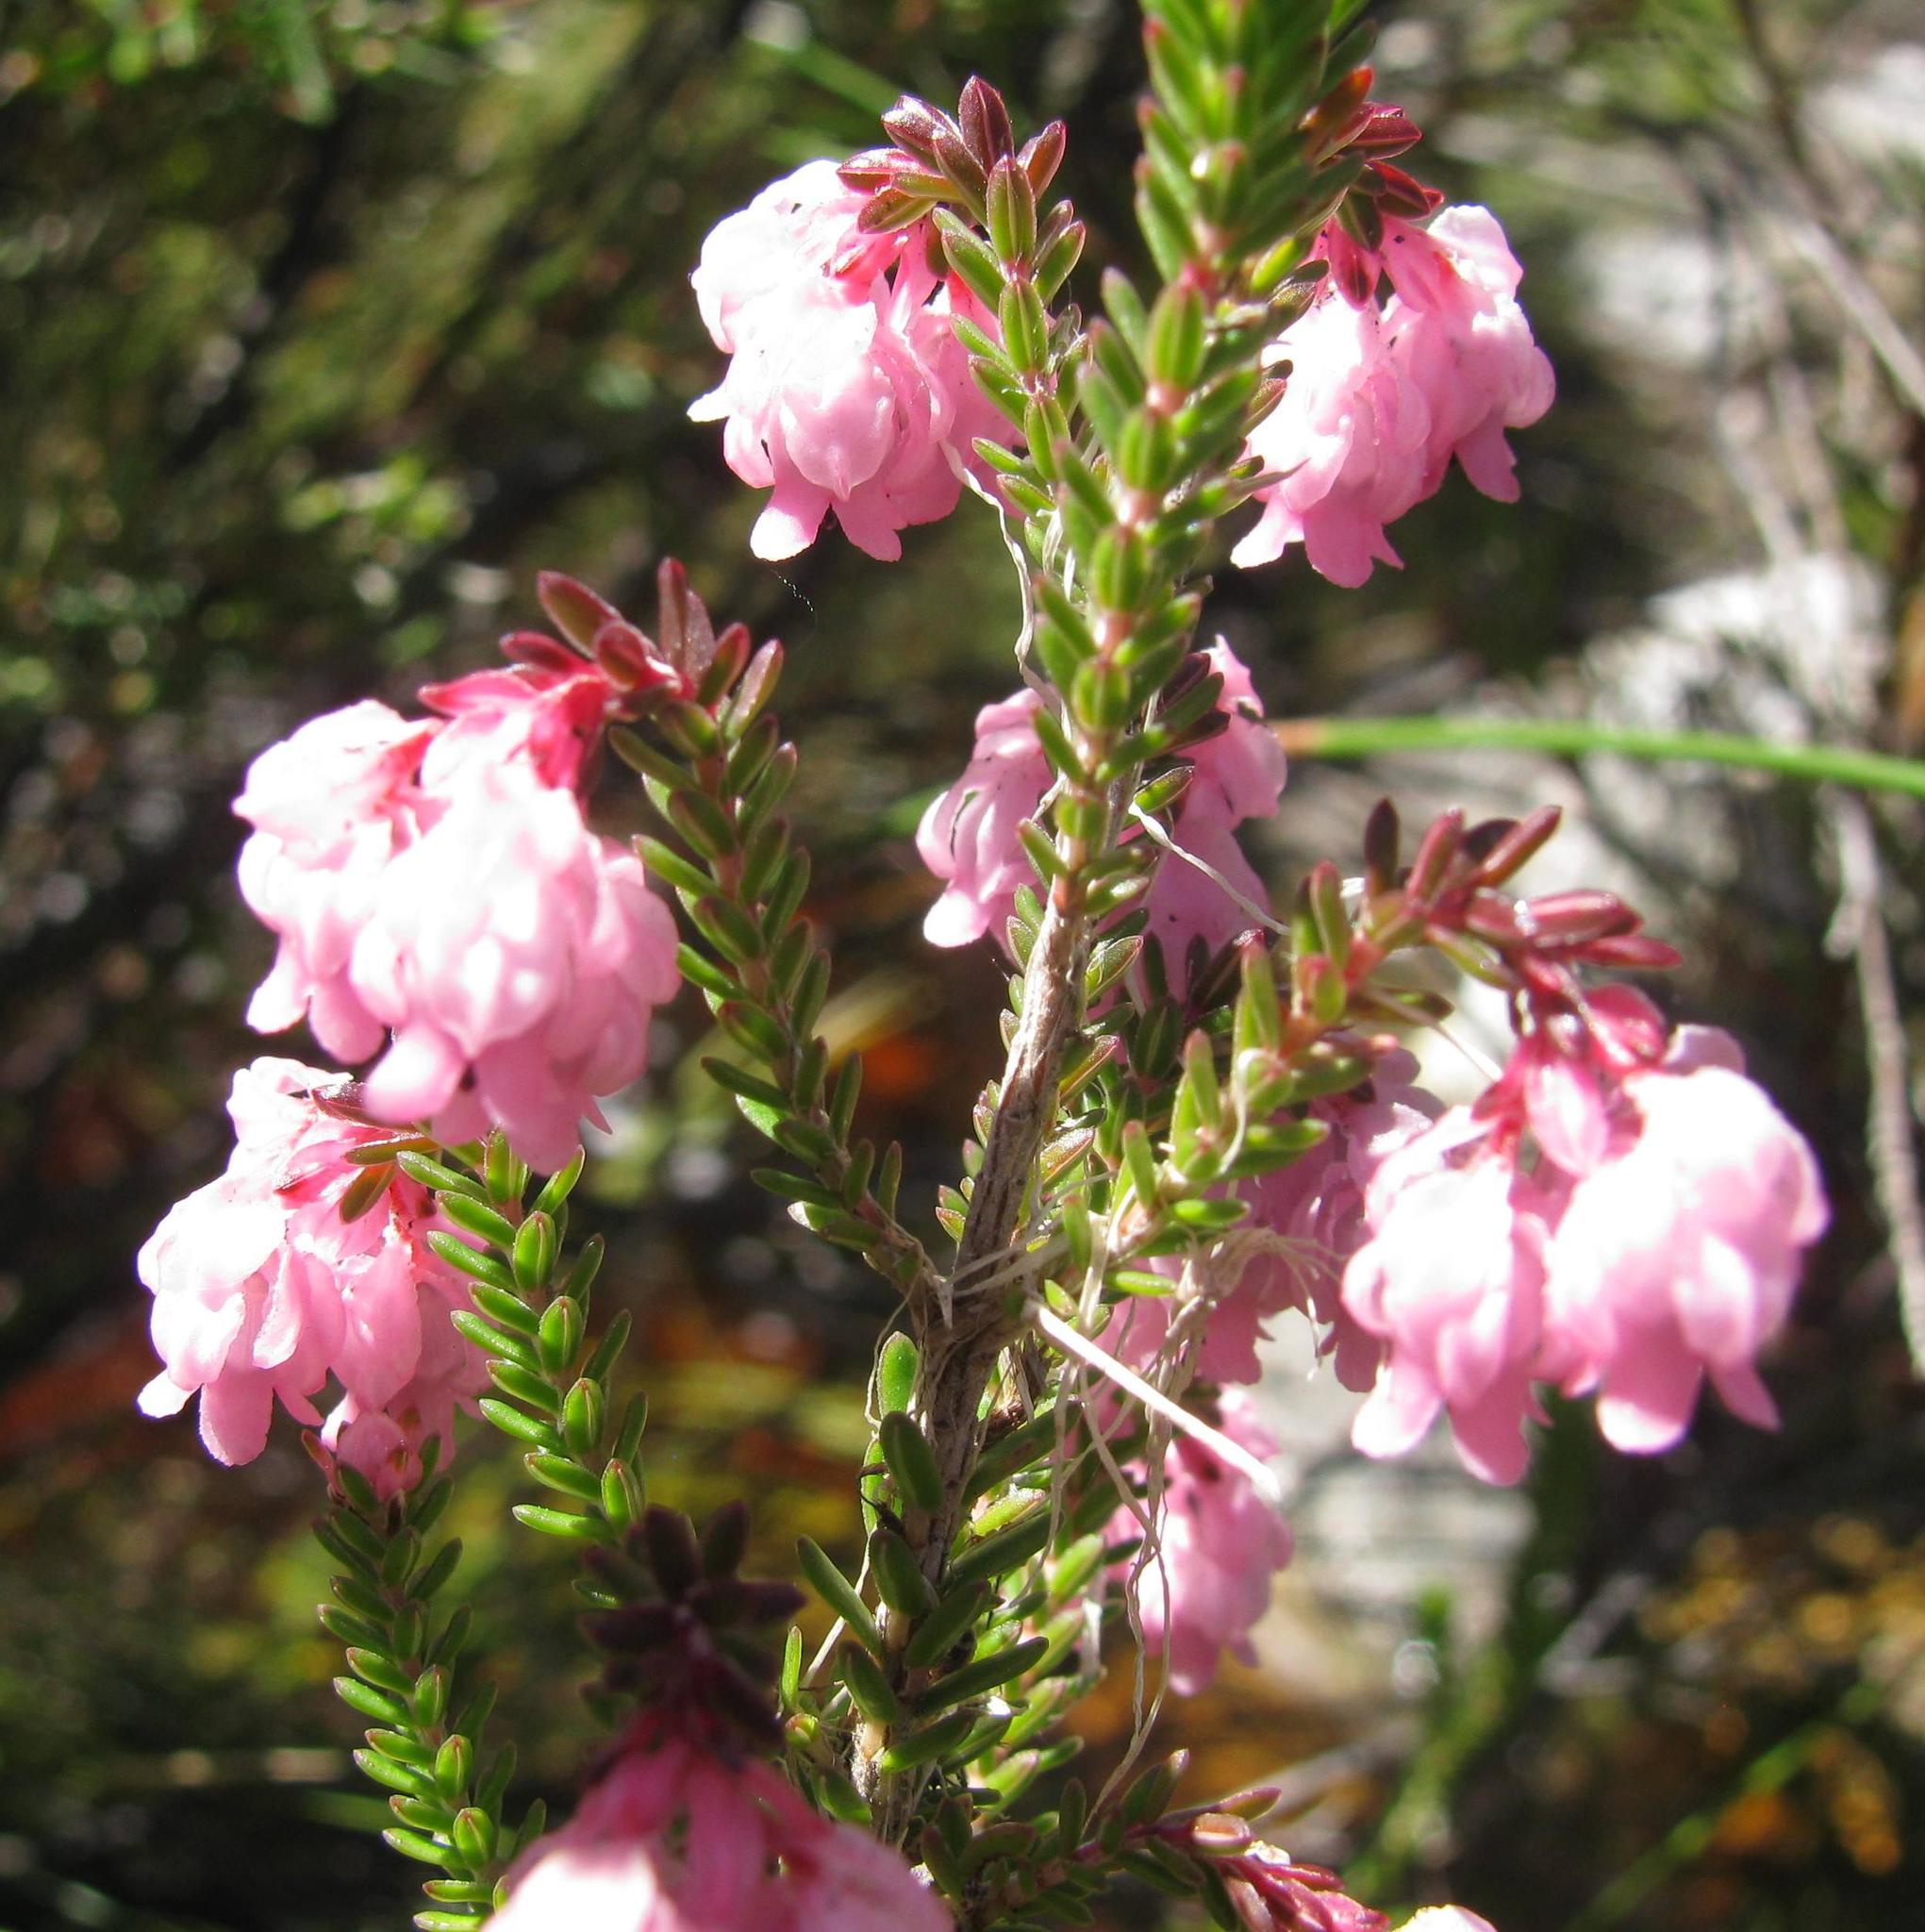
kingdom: Plantae
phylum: Tracheophyta
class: Magnoliopsida
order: Ericales
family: Ericaceae
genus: Erica
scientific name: Erica tegulifolia
